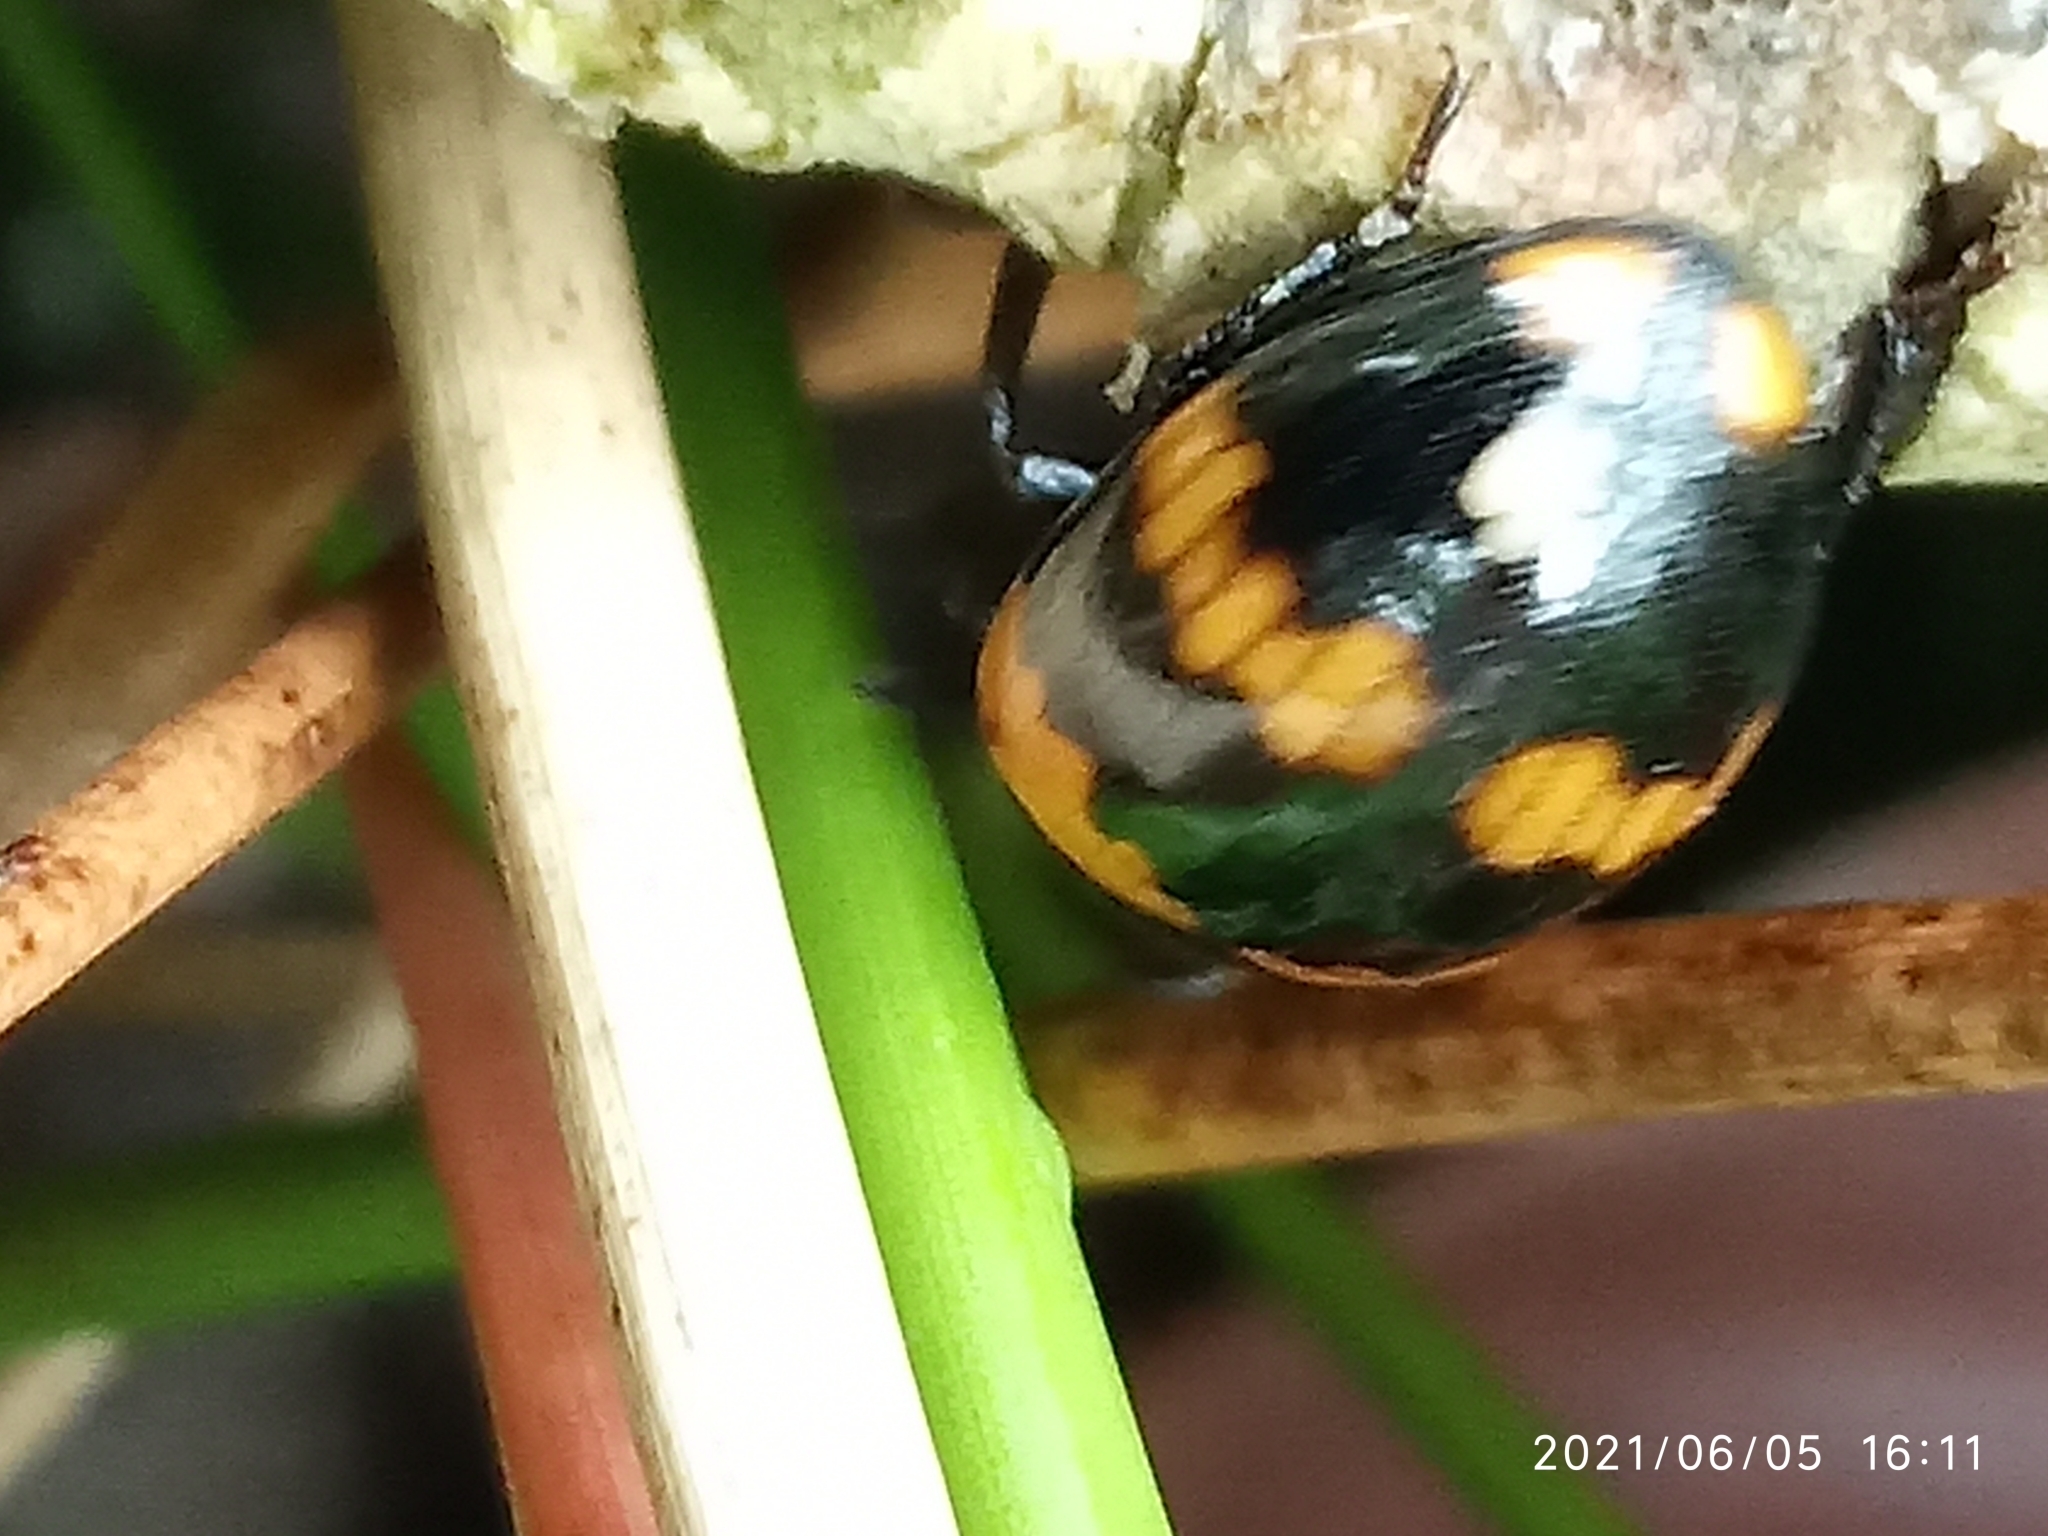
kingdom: Animalia
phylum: Arthropoda
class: Insecta
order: Coleoptera
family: Tenebrionidae
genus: Diaperis
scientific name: Diaperis boleti
